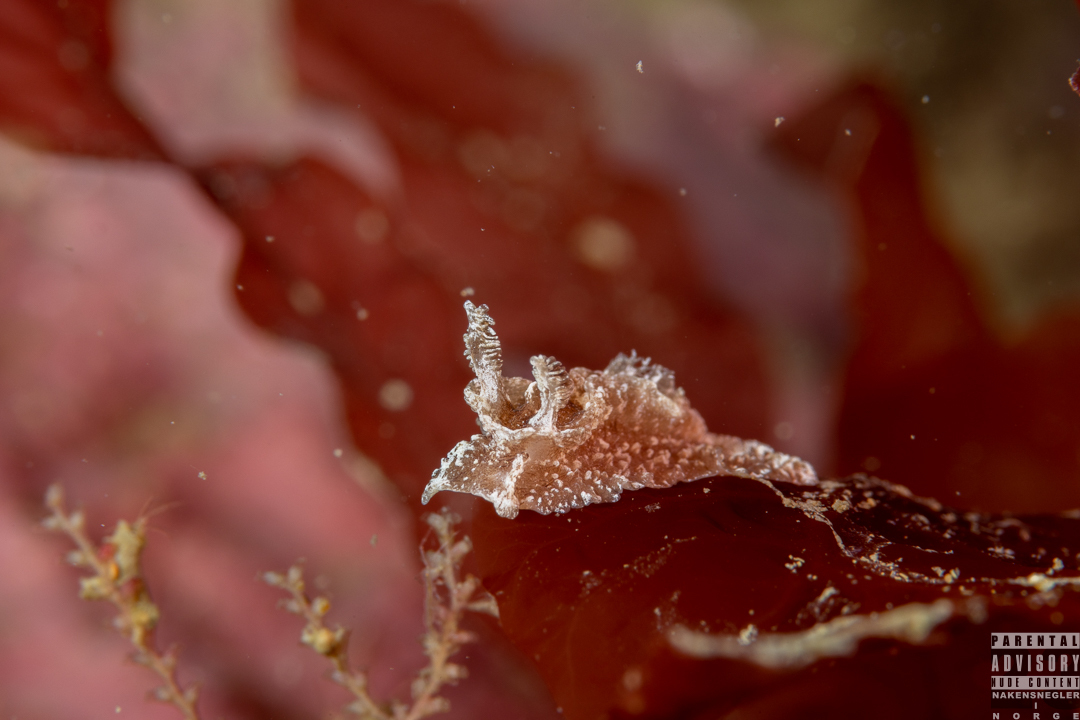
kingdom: Animalia
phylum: Mollusca
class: Gastropoda
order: Nudibranchia
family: Goniodorididae
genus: Pelagella
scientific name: Pelagella castanea
